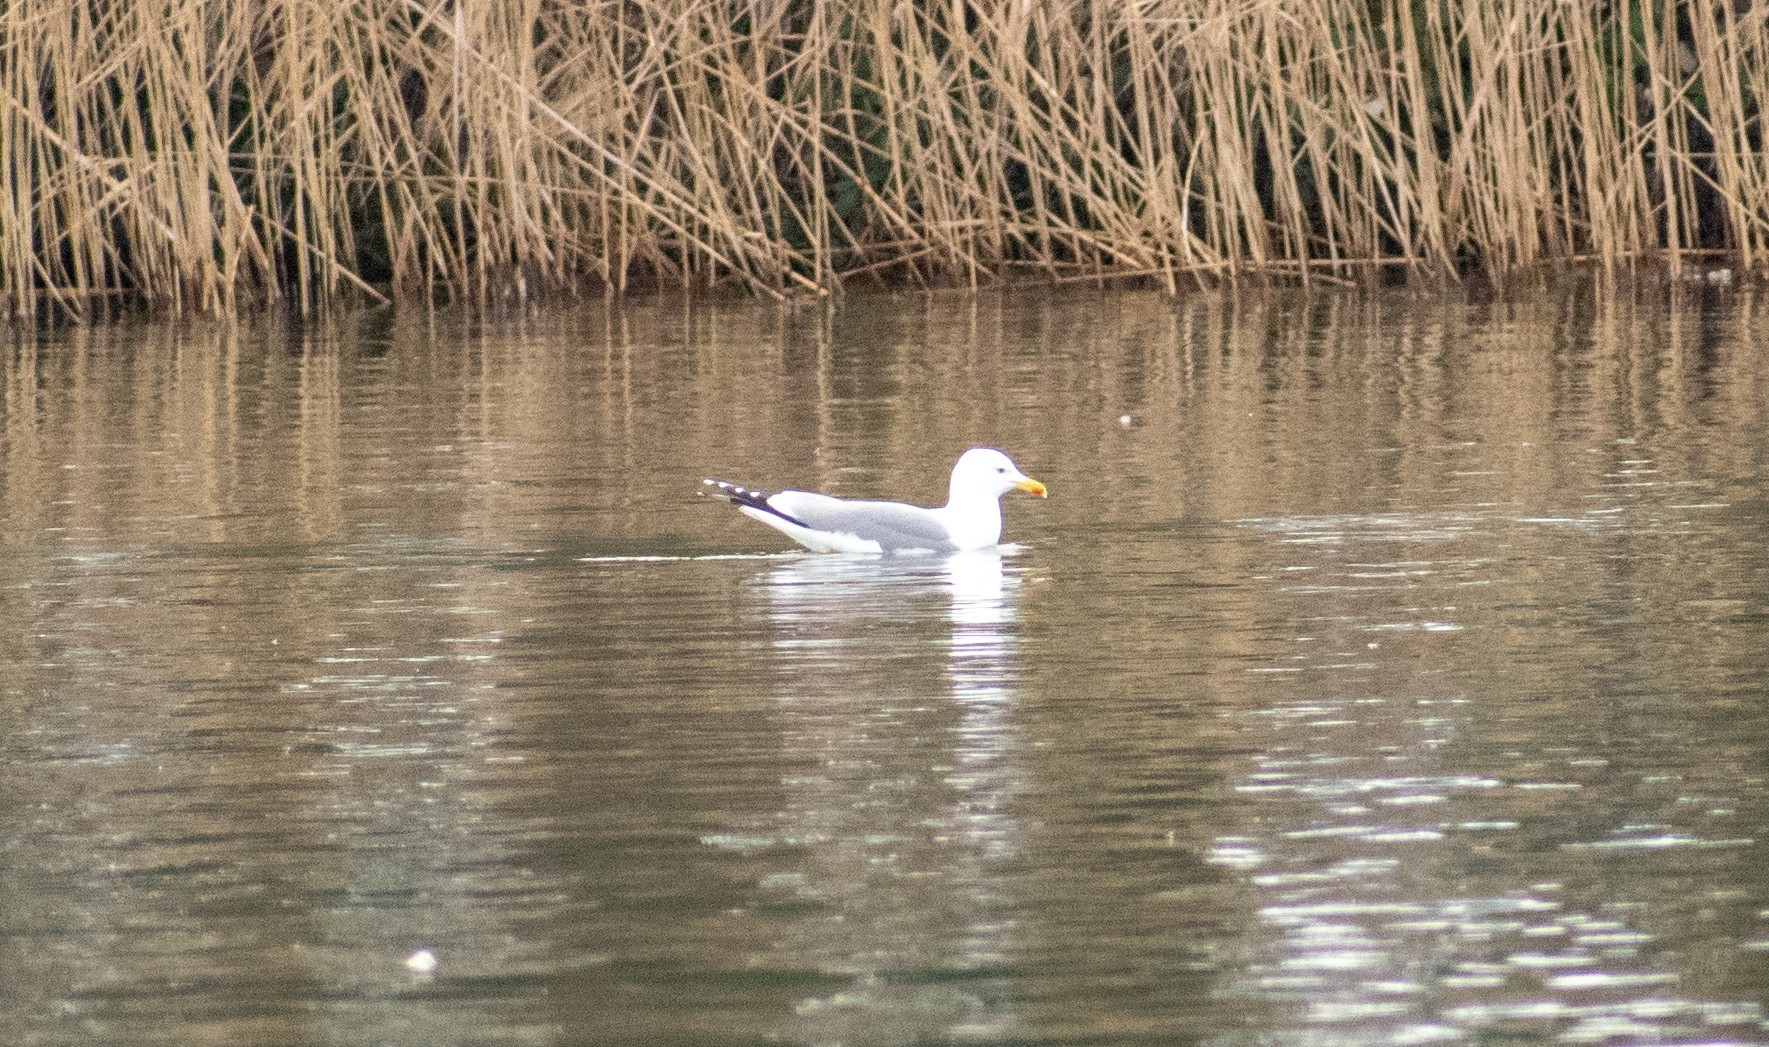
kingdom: Animalia
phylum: Chordata
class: Aves
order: Charadriiformes
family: Laridae
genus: Larus
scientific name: Larus michahellis
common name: Yellow-legged gull
